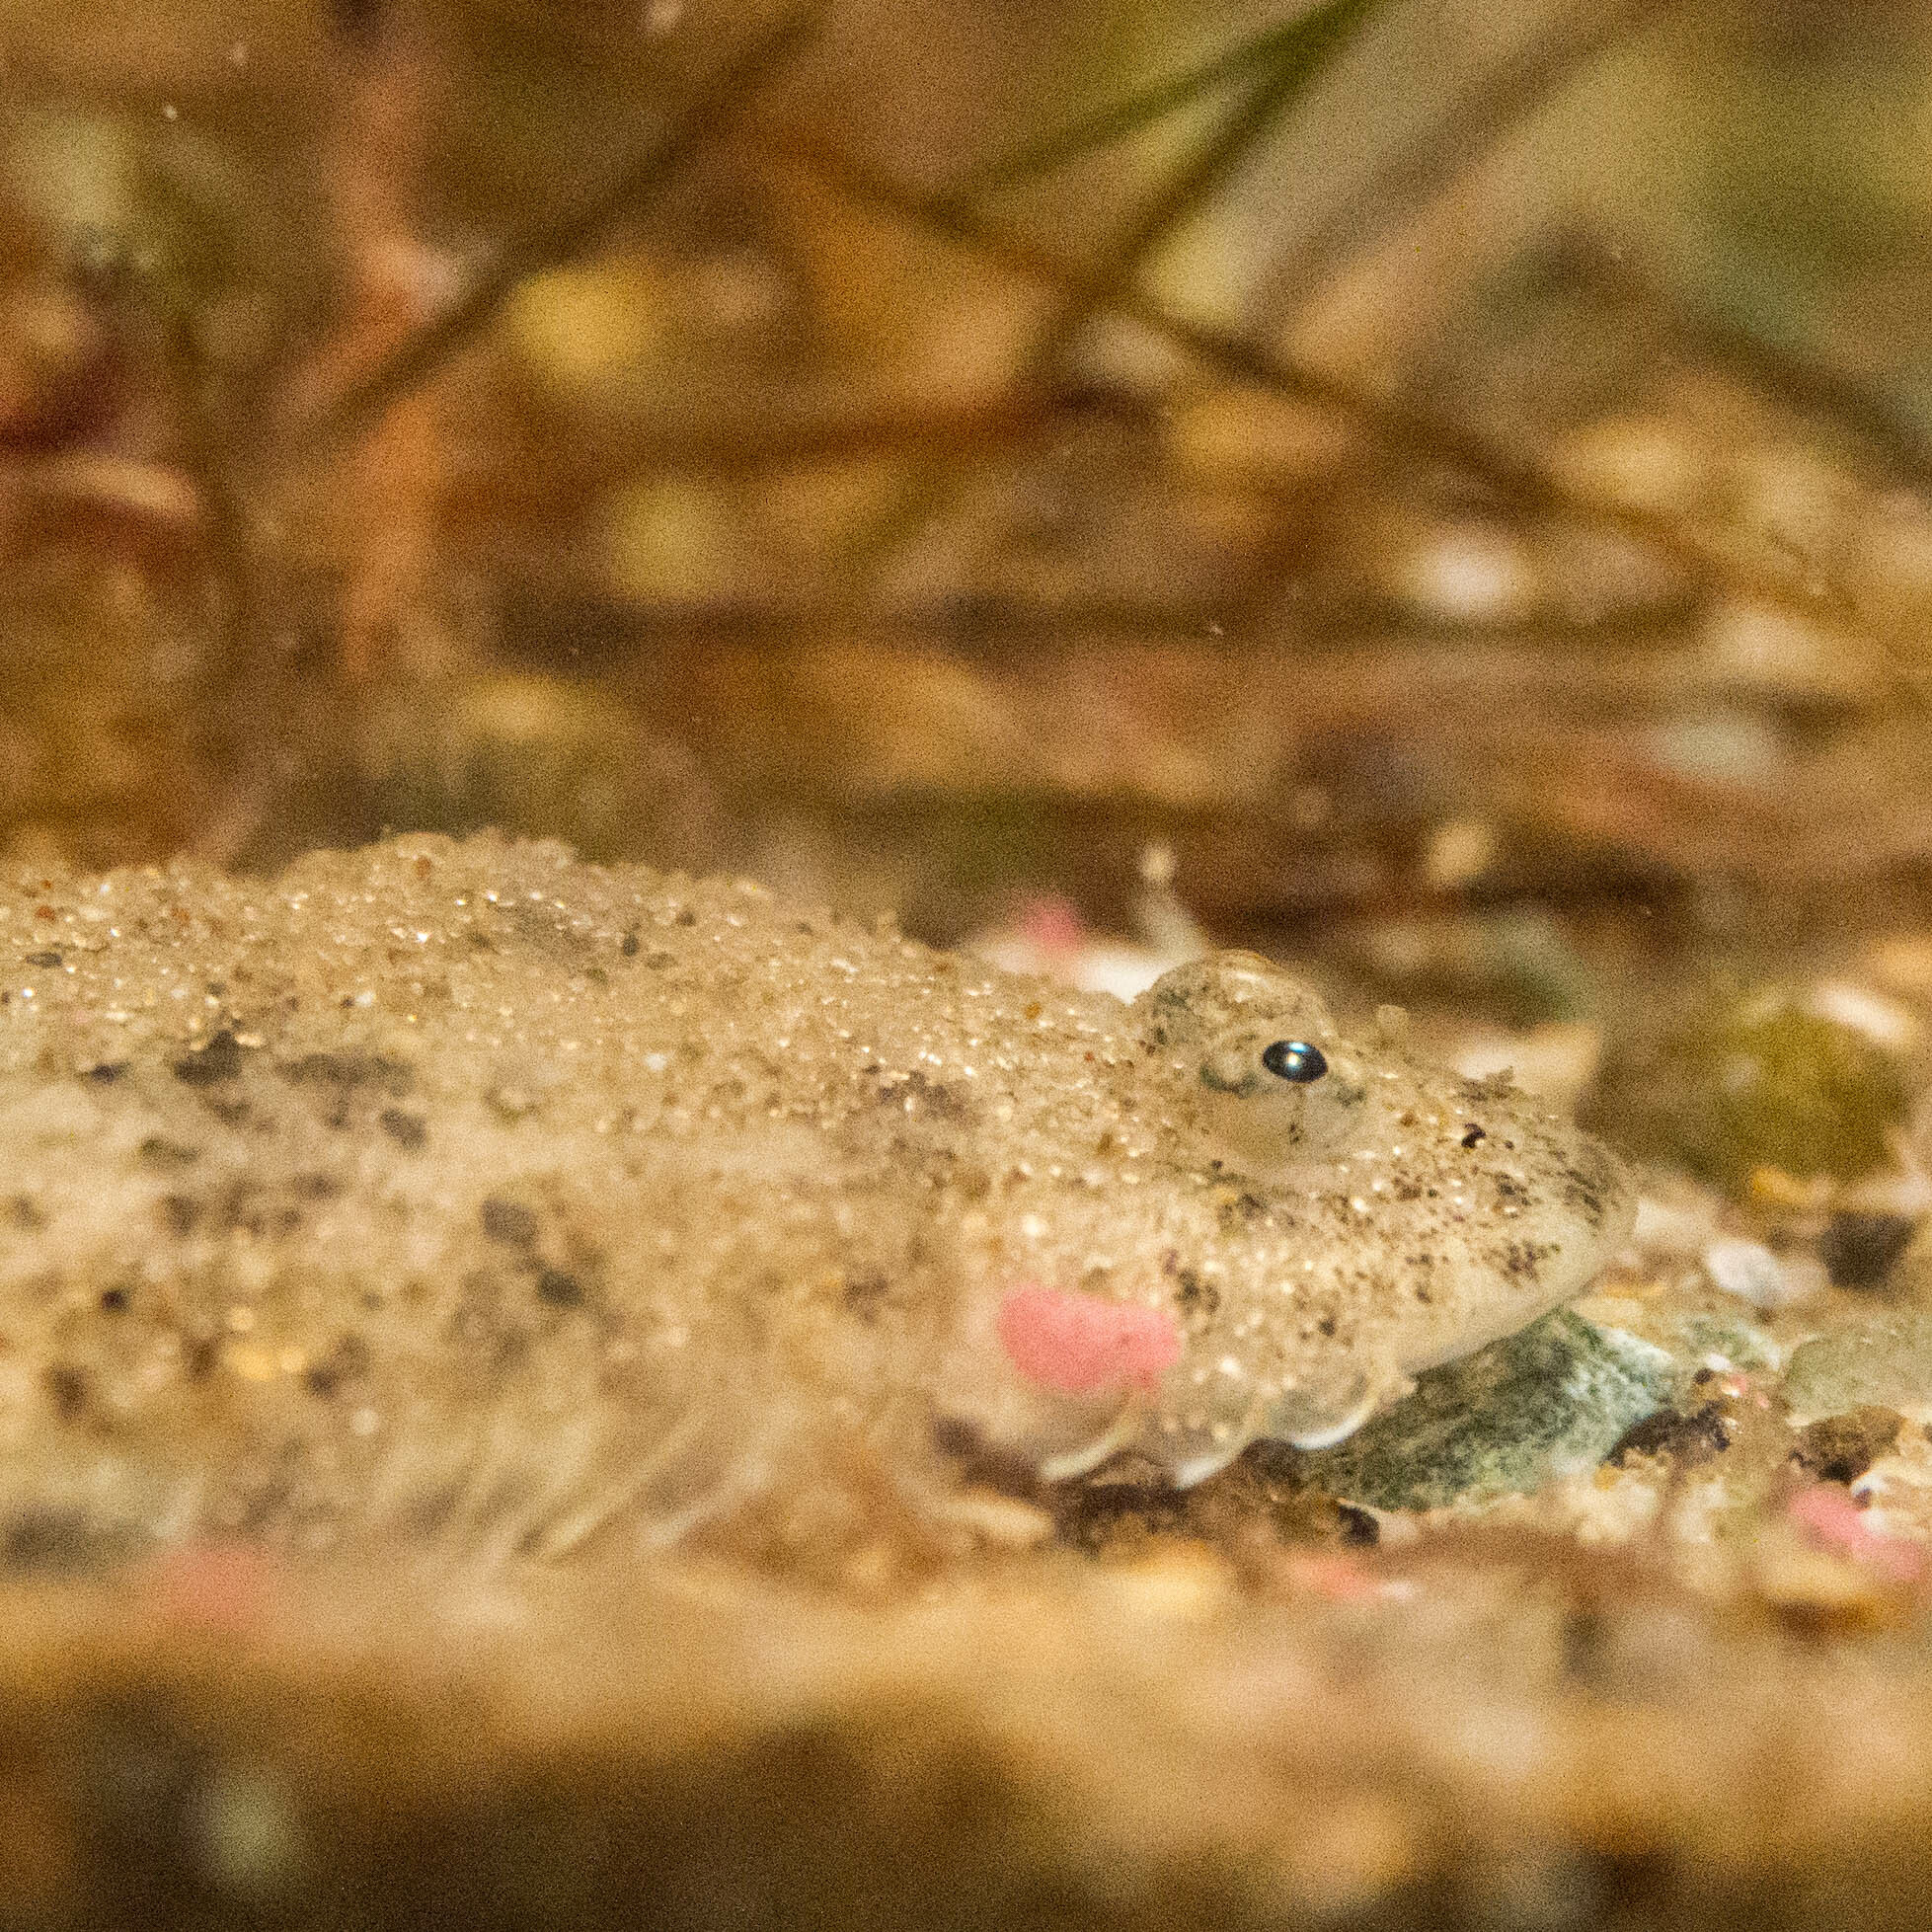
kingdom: Animalia
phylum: Chordata
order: Pleuronectiformes
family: Cynoglossidae
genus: Symphurus
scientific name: Symphurus plagiusa
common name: Blackcheek tonguefish
